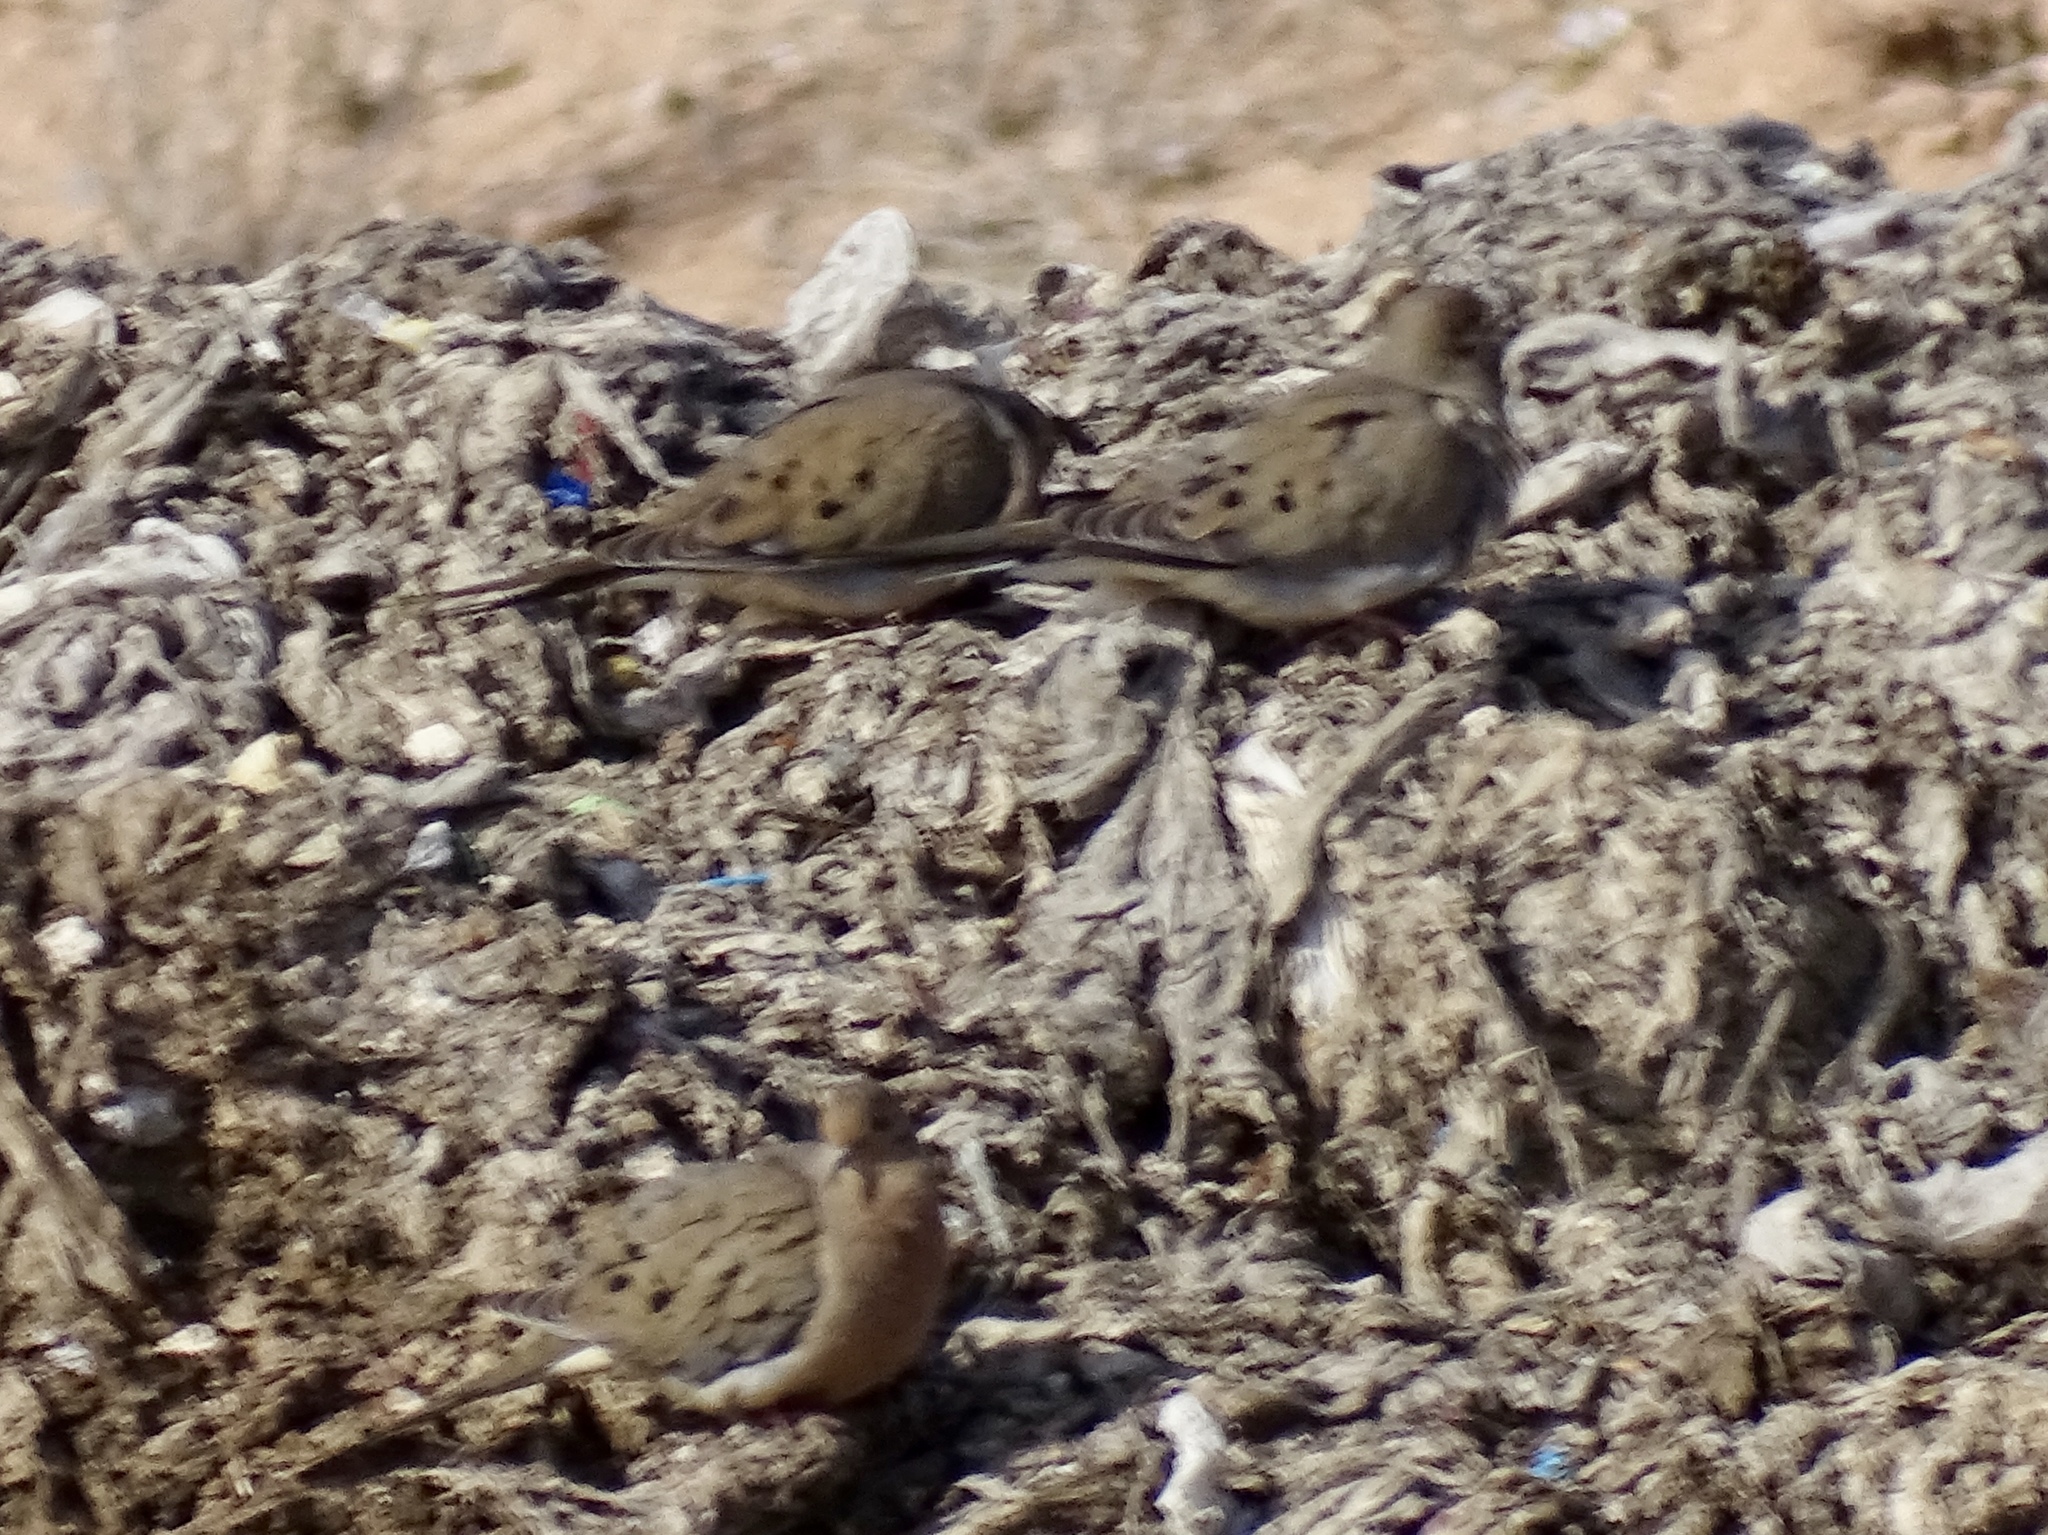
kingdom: Animalia
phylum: Chordata
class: Aves
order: Columbiformes
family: Columbidae
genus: Zenaida
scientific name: Zenaida macroura
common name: Mourning dove
